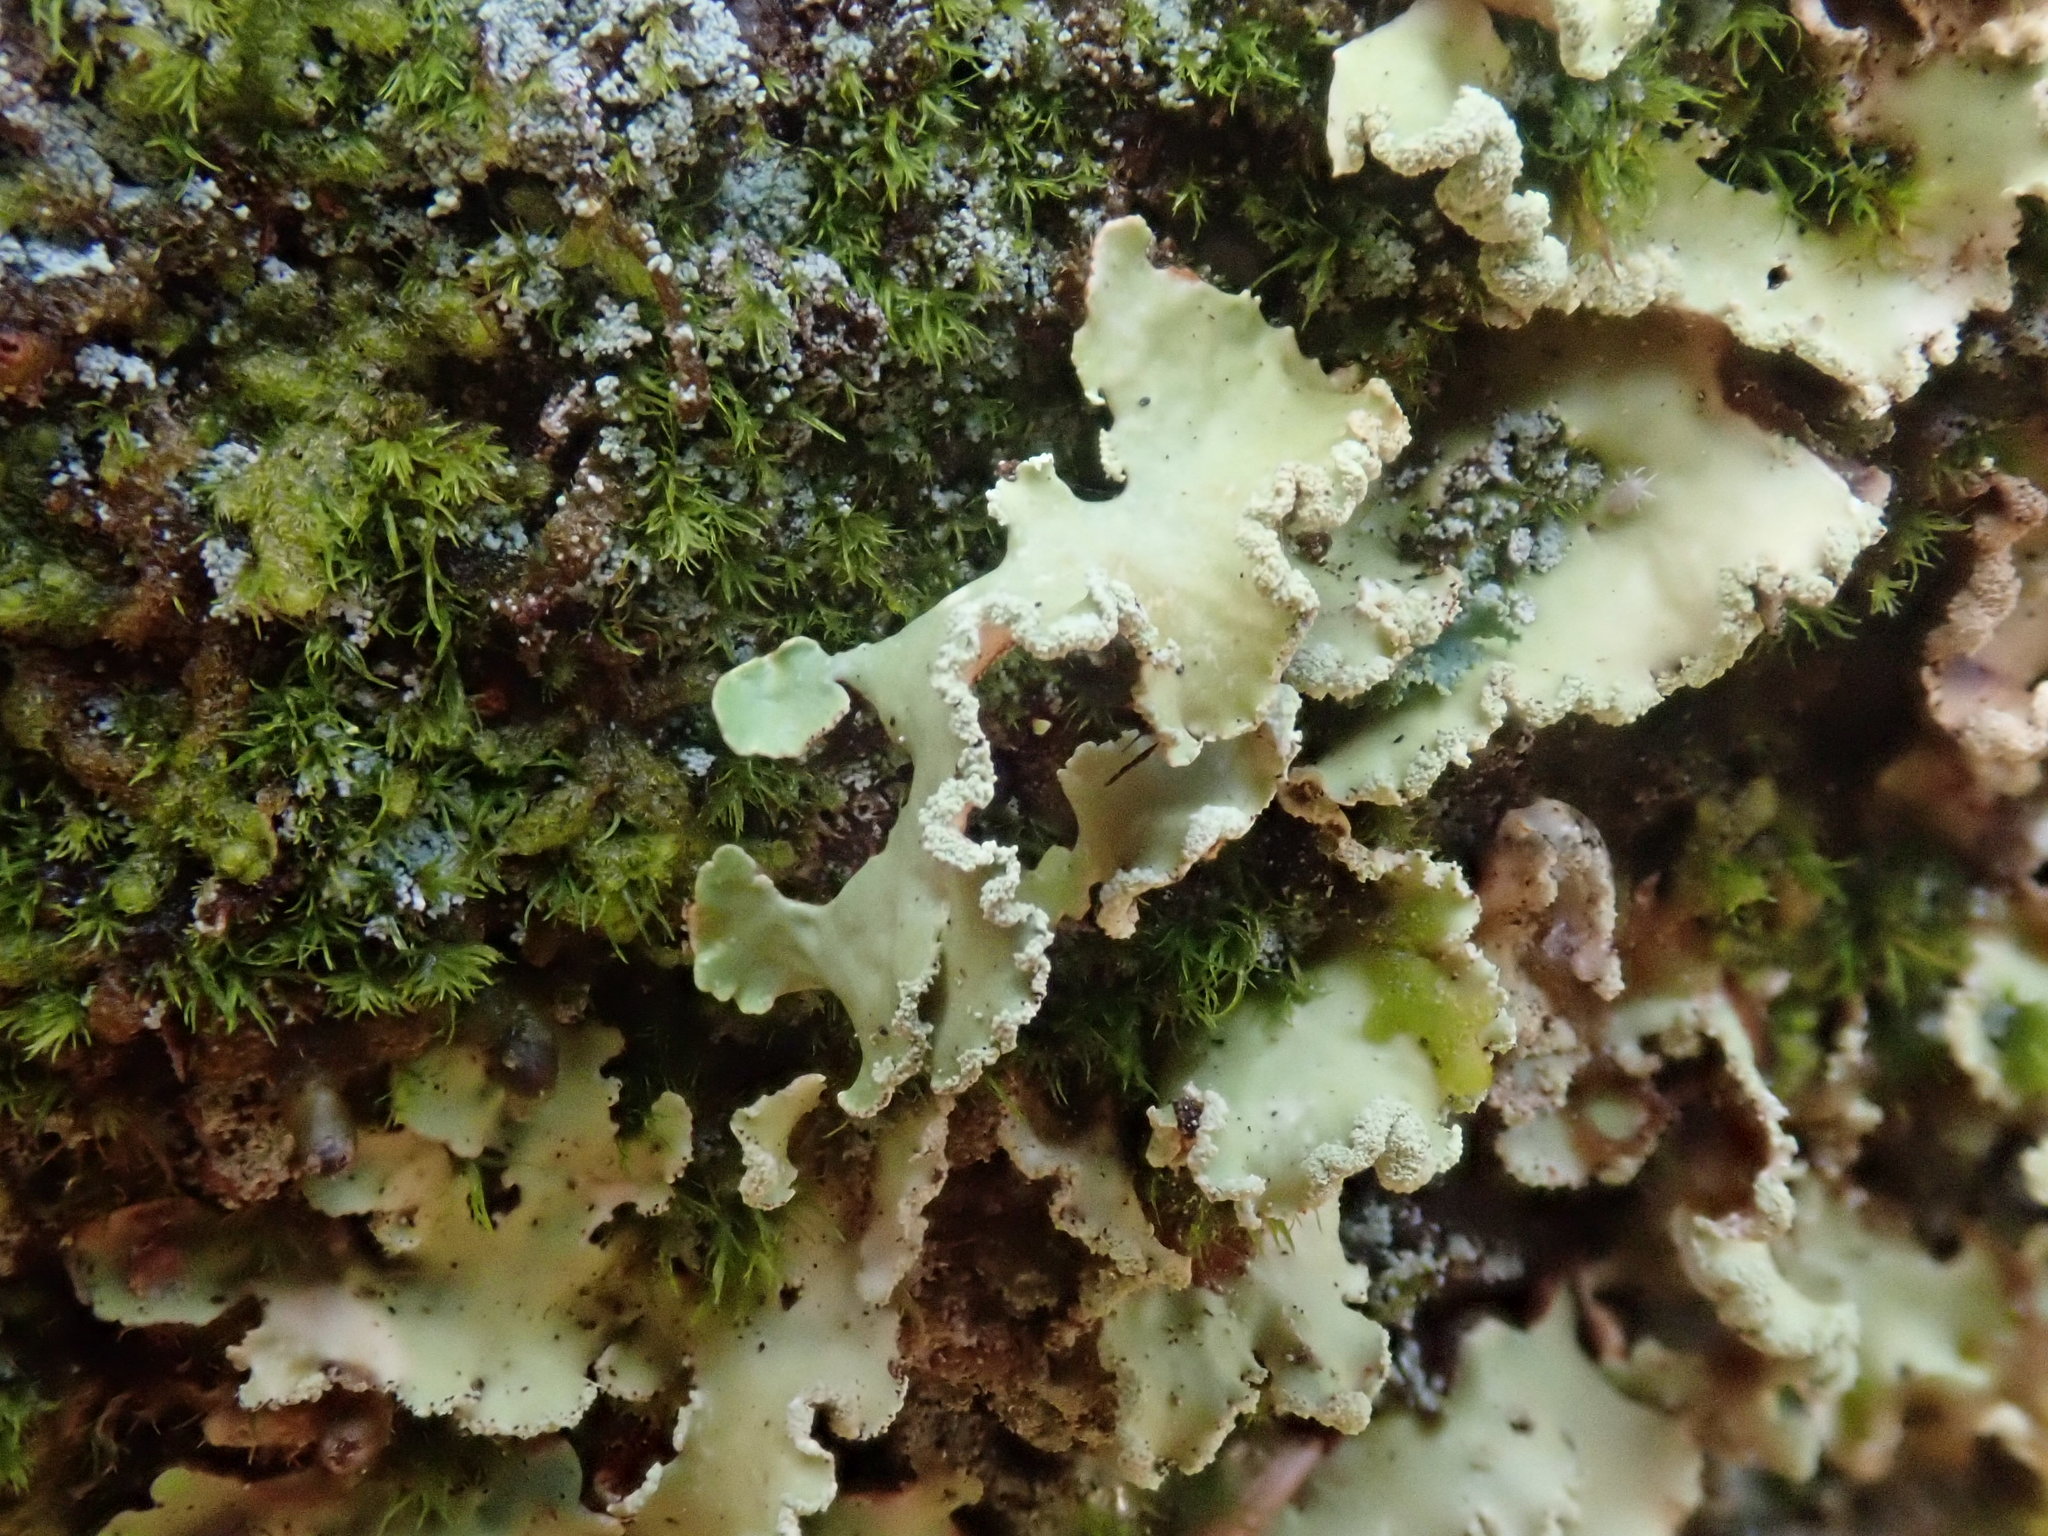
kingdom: Fungi
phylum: Ascomycota
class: Lecanoromycetes
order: Lecanorales
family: Parmeliaceae
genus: Usnocetraria
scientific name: Usnocetraria oakesiana
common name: Yellow ribbon lichen
